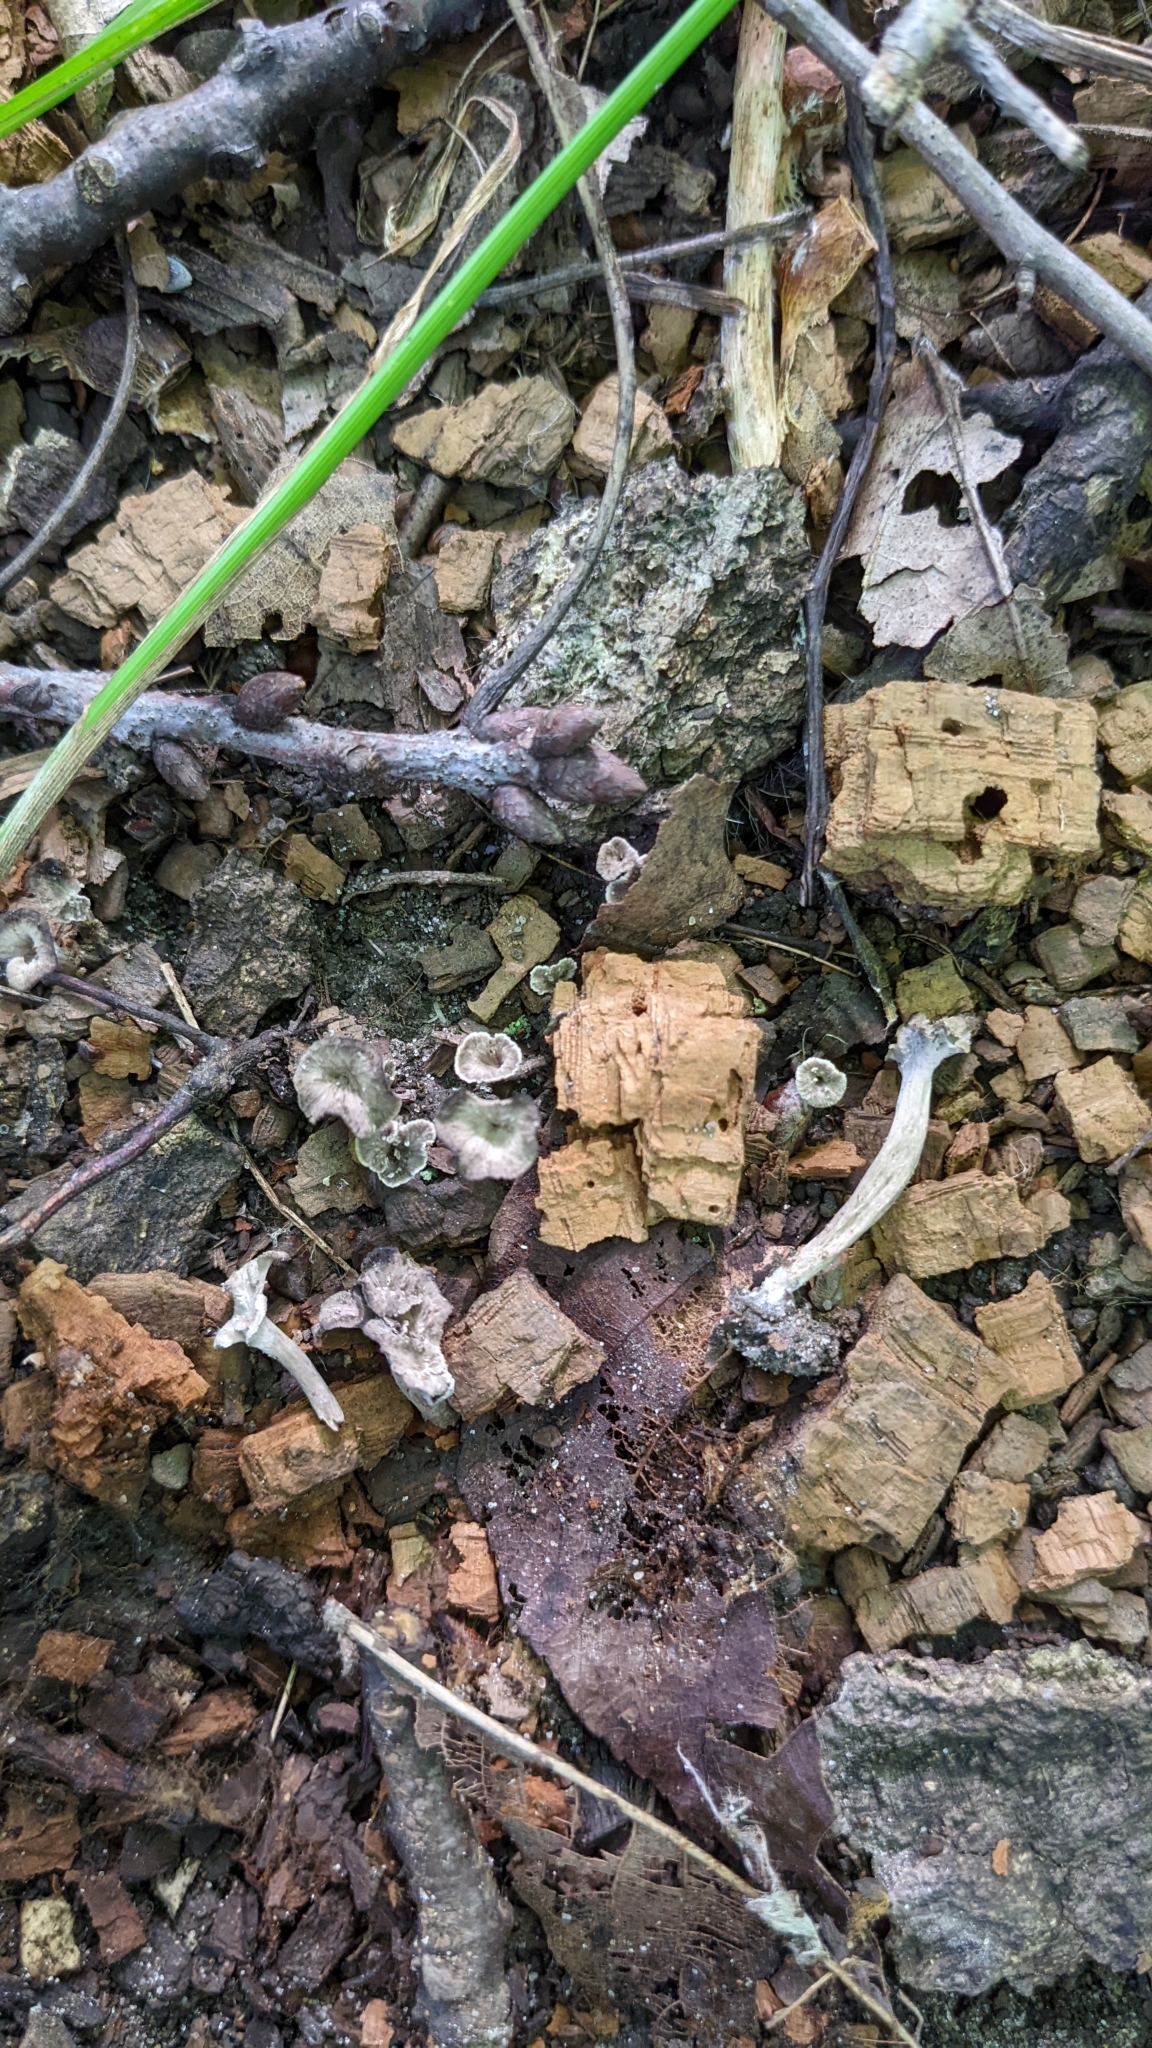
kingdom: Fungi
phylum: Basidiomycota
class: Agaricomycetes
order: Cantharellales
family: Hydnaceae
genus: Pseudocraterellus
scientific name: Pseudocraterellus calyculus
